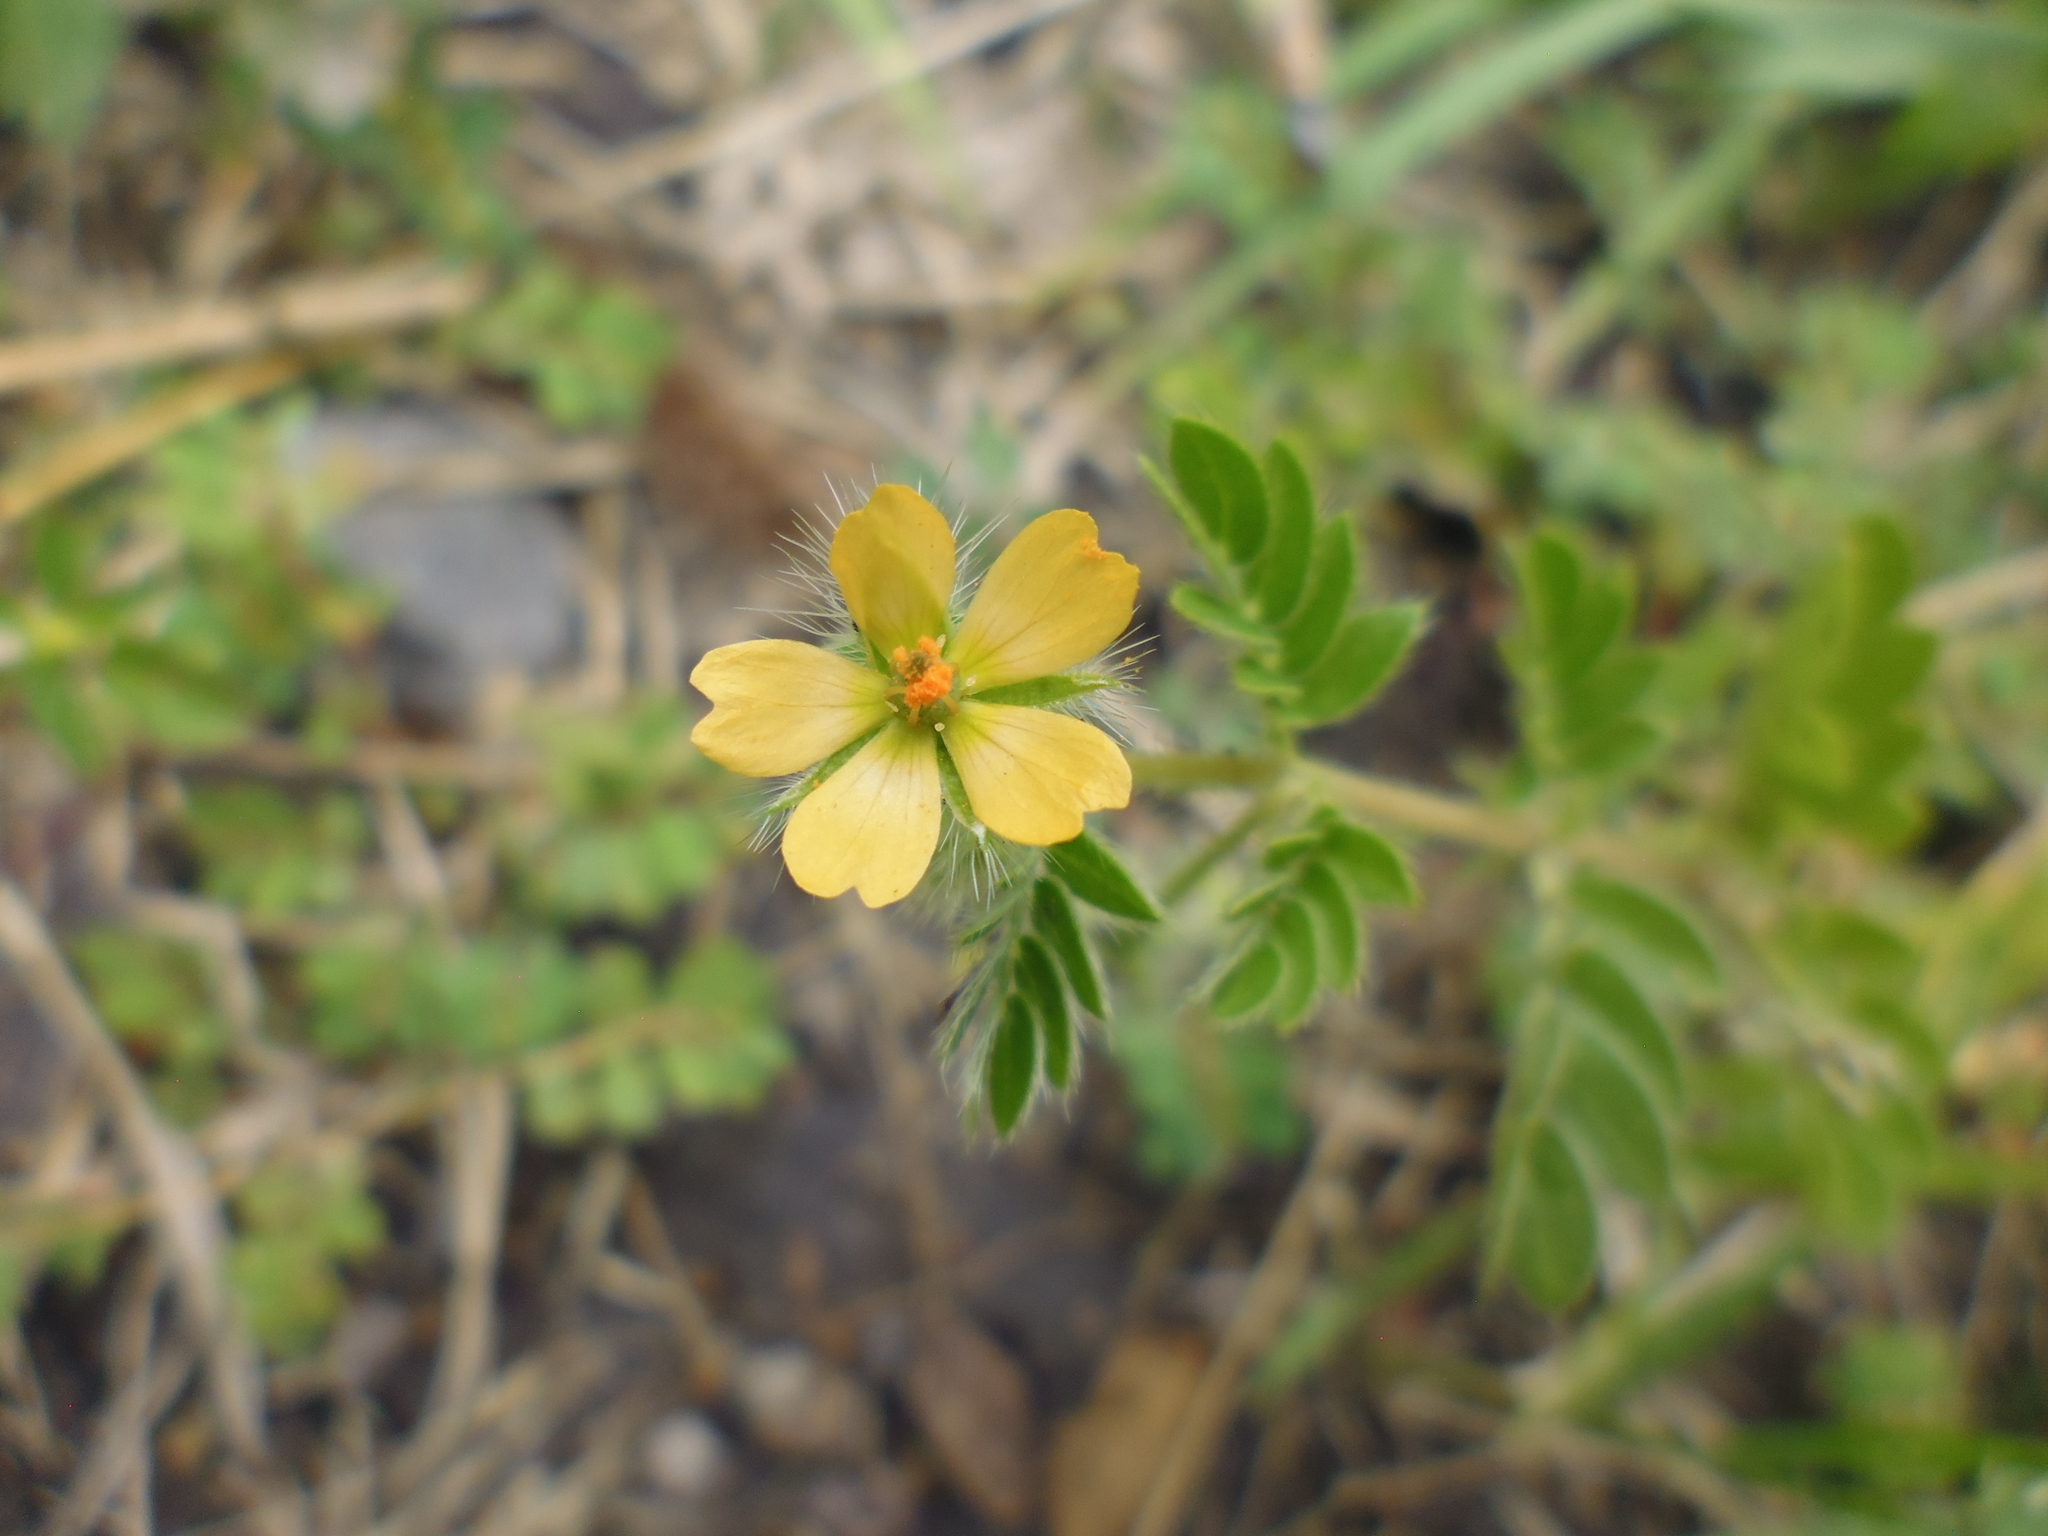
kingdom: Plantae
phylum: Tracheophyta
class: Magnoliopsida
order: Zygophyllales
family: Zygophyllaceae
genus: Kallstroemia
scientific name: Kallstroemia parviflora
